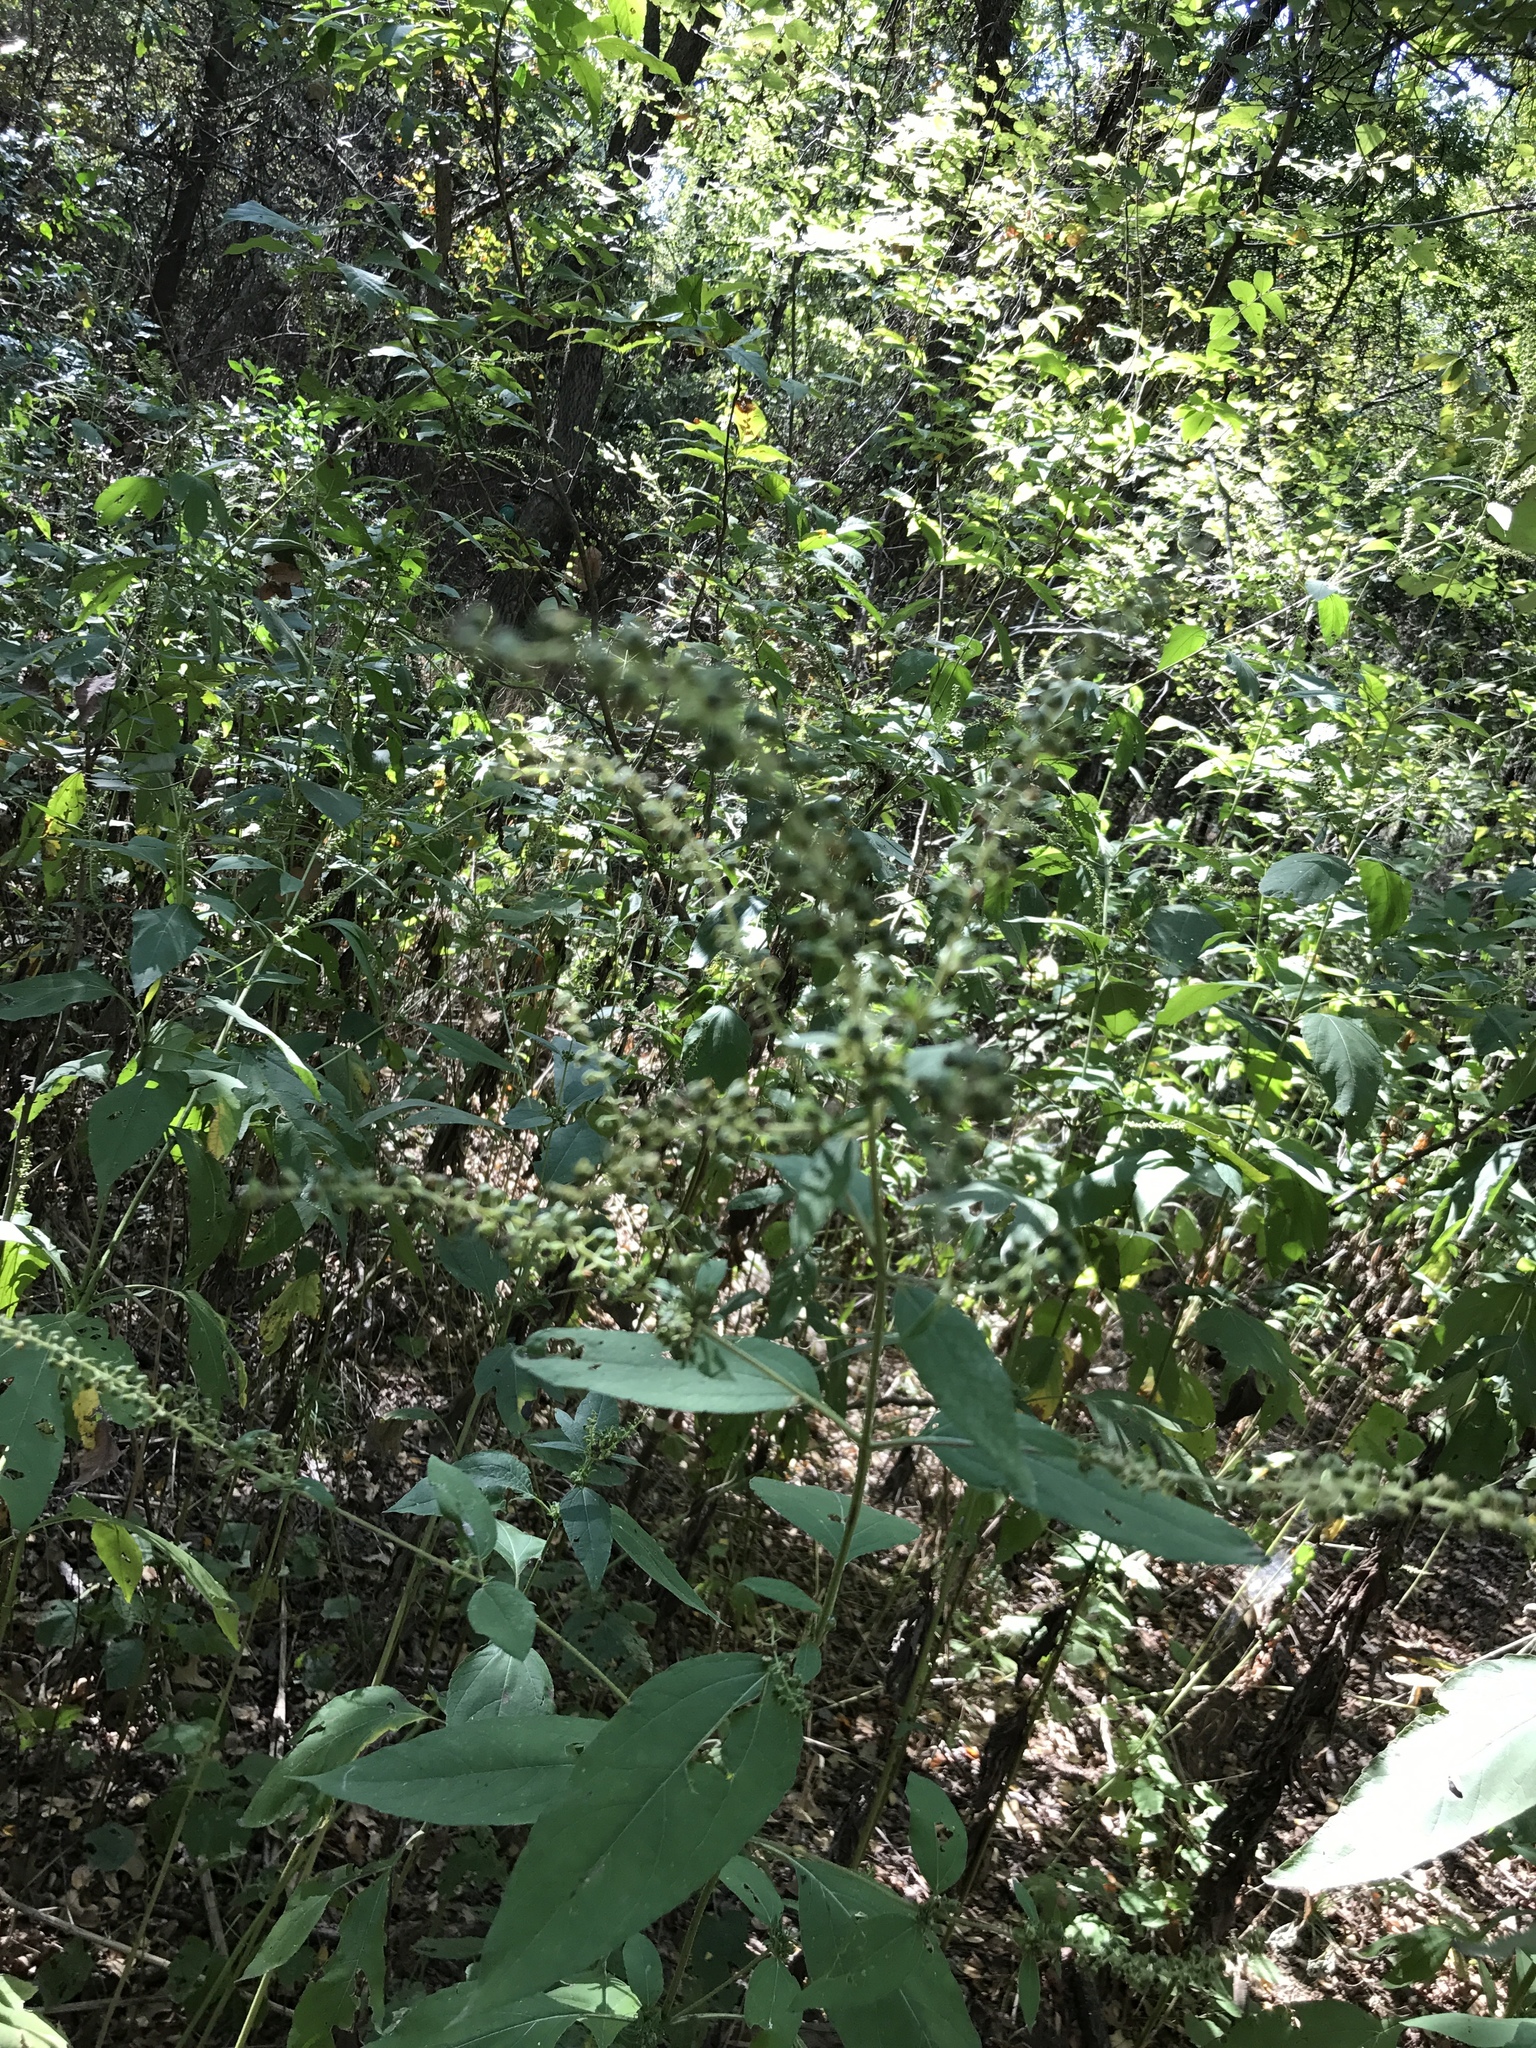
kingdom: Plantae
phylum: Tracheophyta
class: Magnoliopsida
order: Asterales
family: Asteraceae
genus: Ambrosia
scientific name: Ambrosia trifida
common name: Giant ragweed
